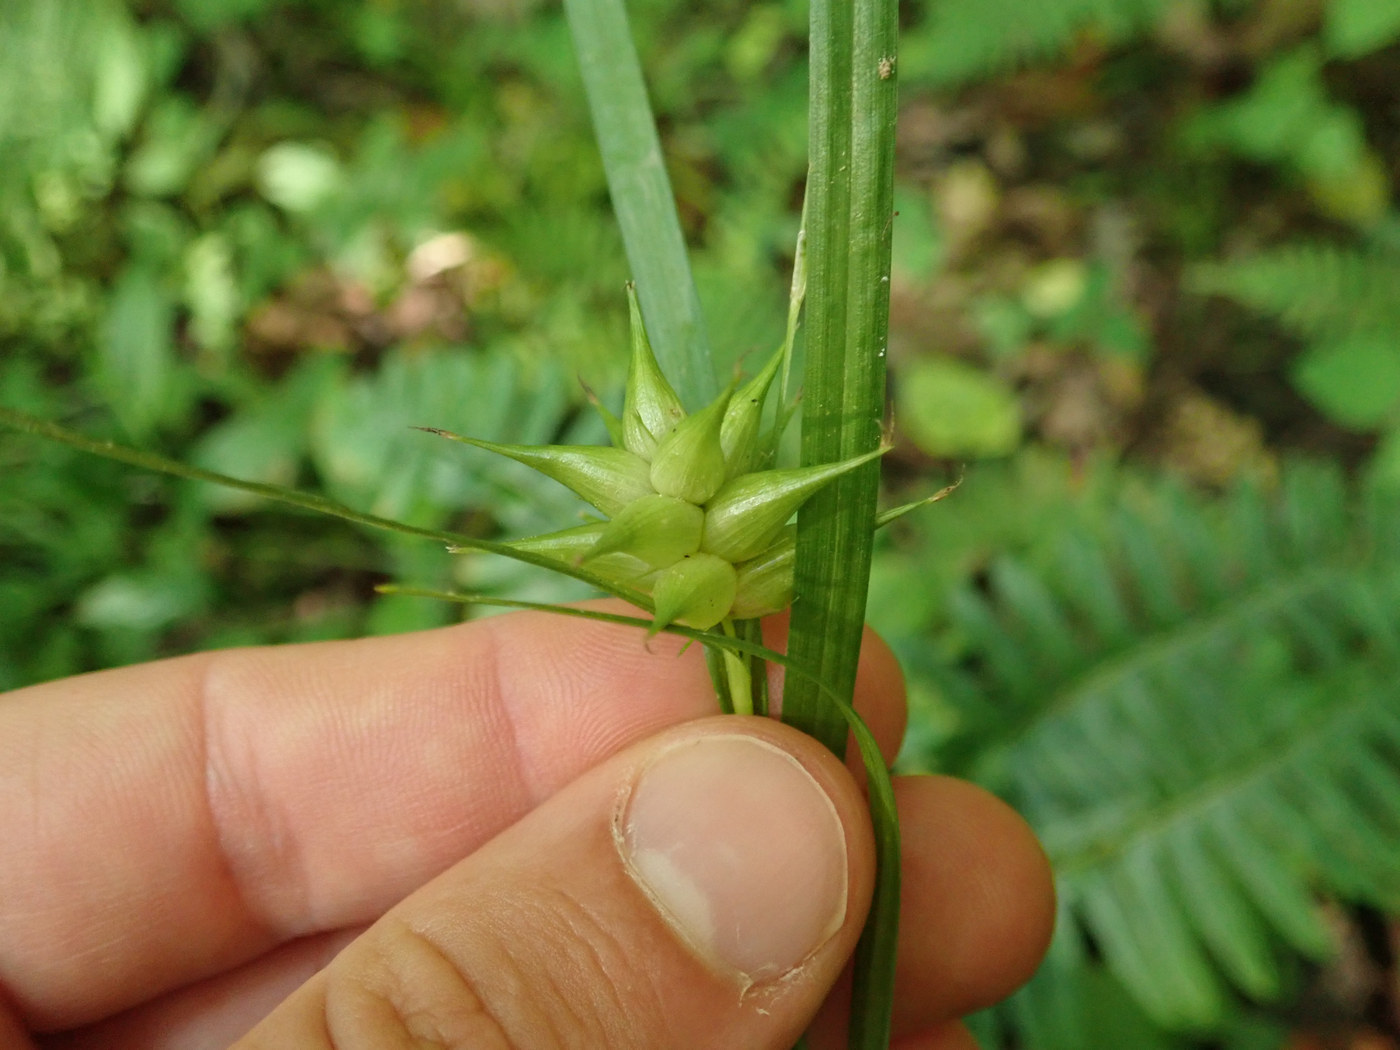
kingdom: Plantae
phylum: Tracheophyta
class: Liliopsida
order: Poales
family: Cyperaceae
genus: Carex
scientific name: Carex intumescens
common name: Greater bladder sedge
